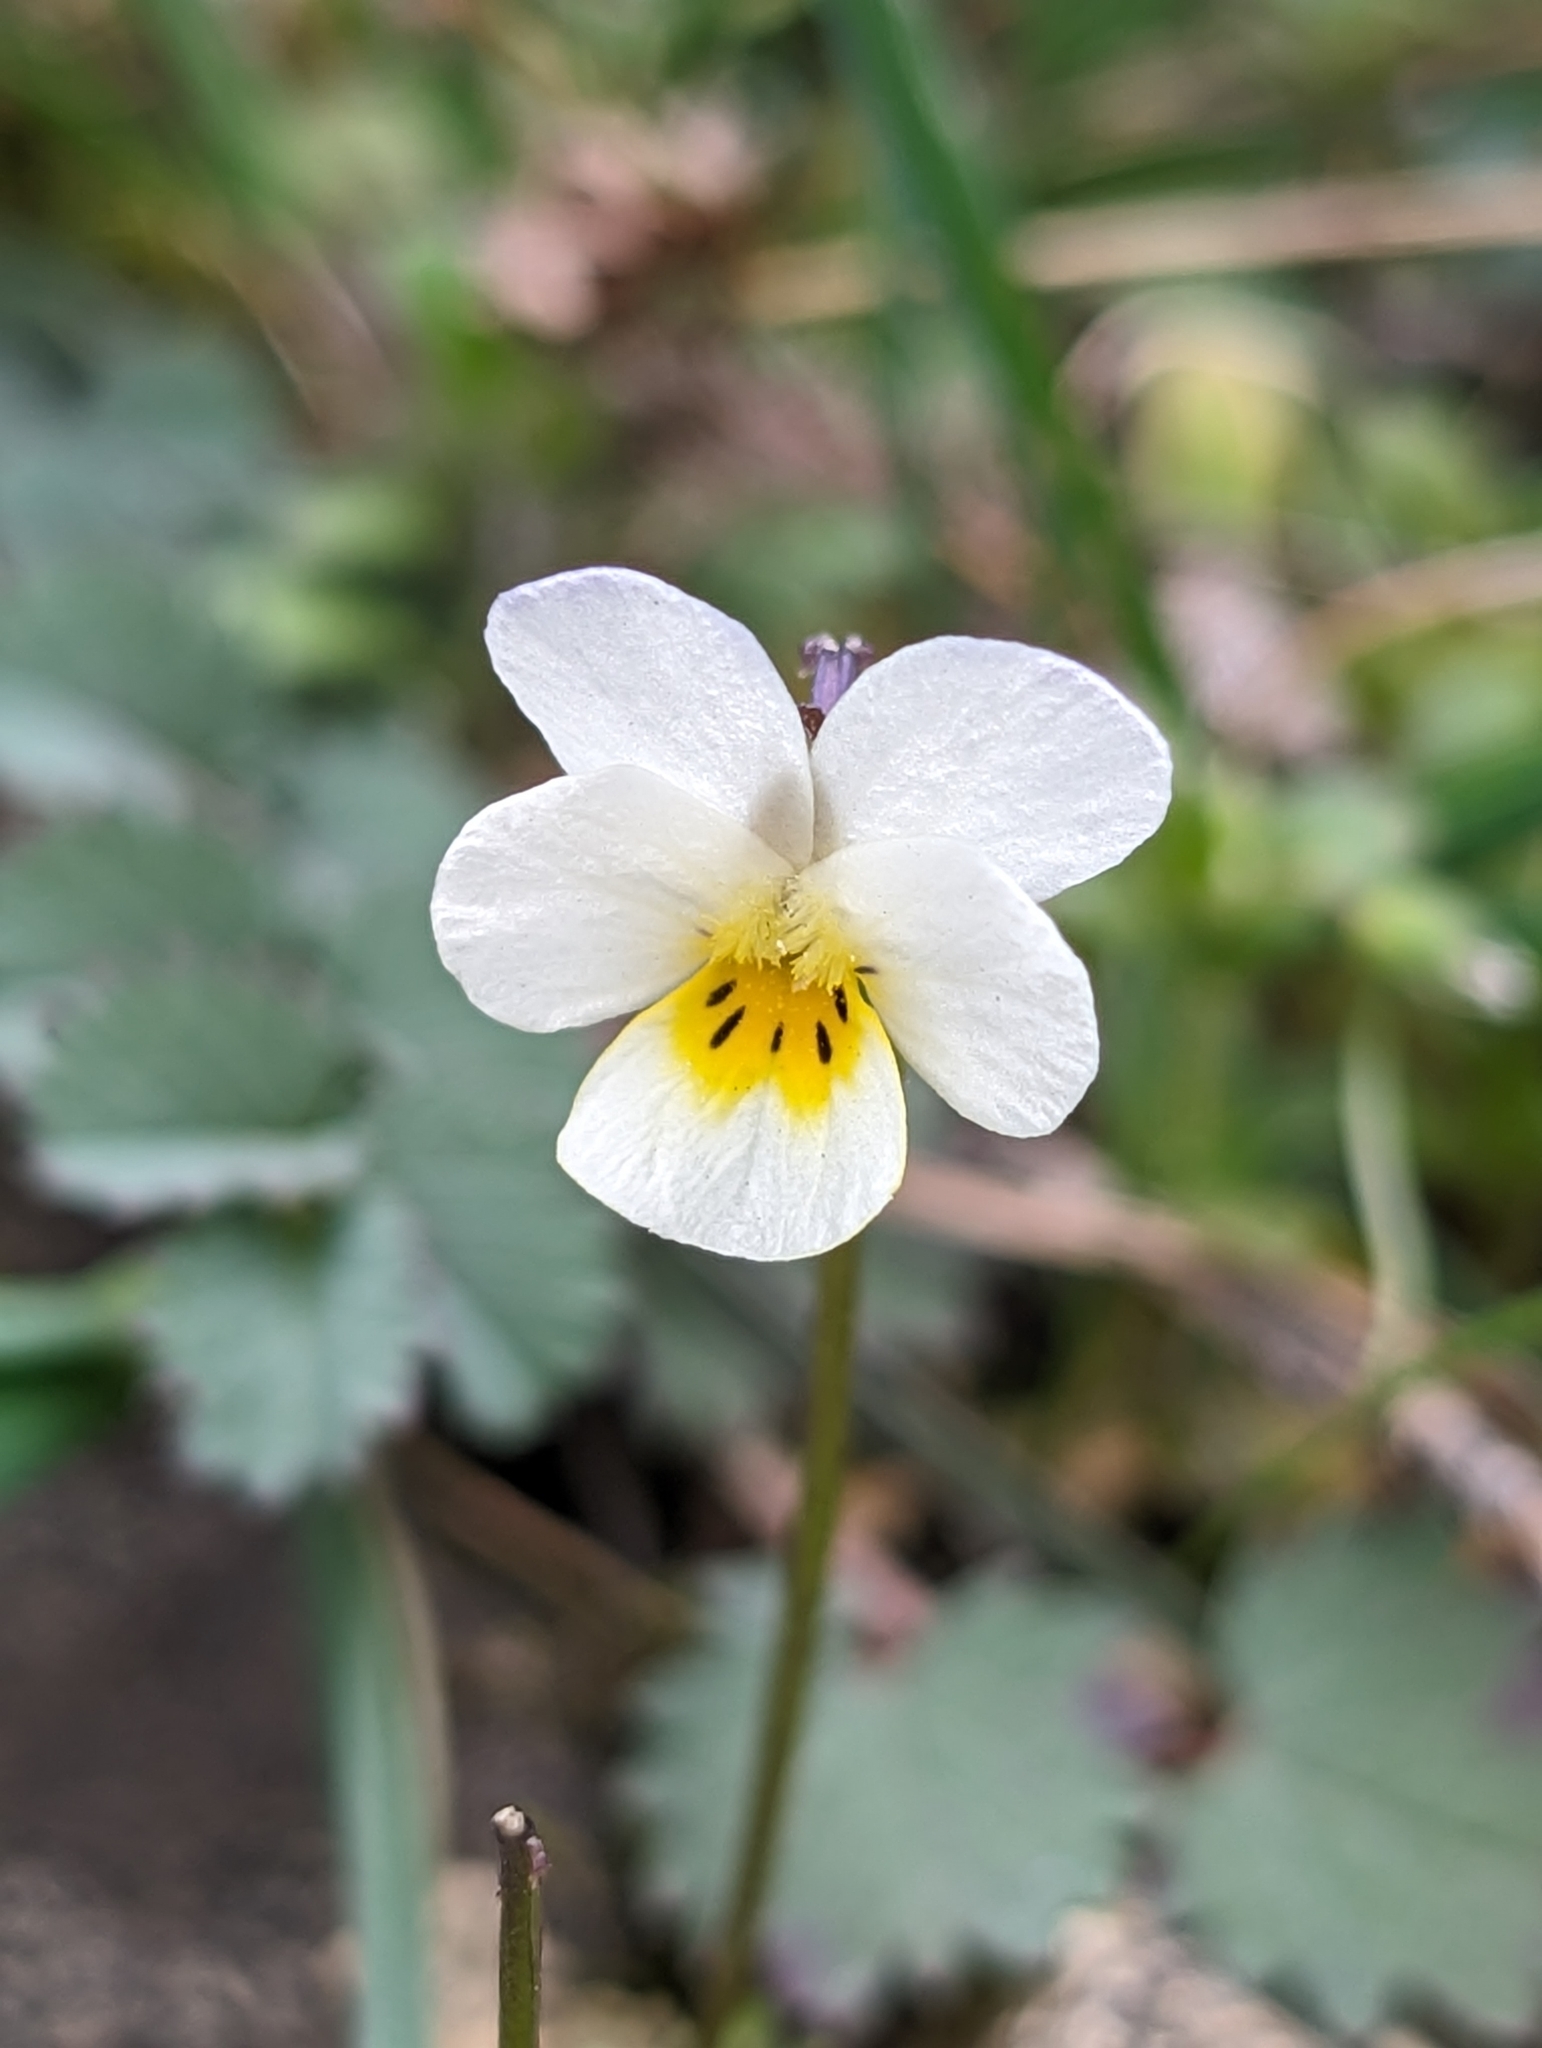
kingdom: Plantae
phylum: Tracheophyta
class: Magnoliopsida
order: Malpighiales
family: Violaceae
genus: Viola
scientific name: Viola arvensis
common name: Field pansy
